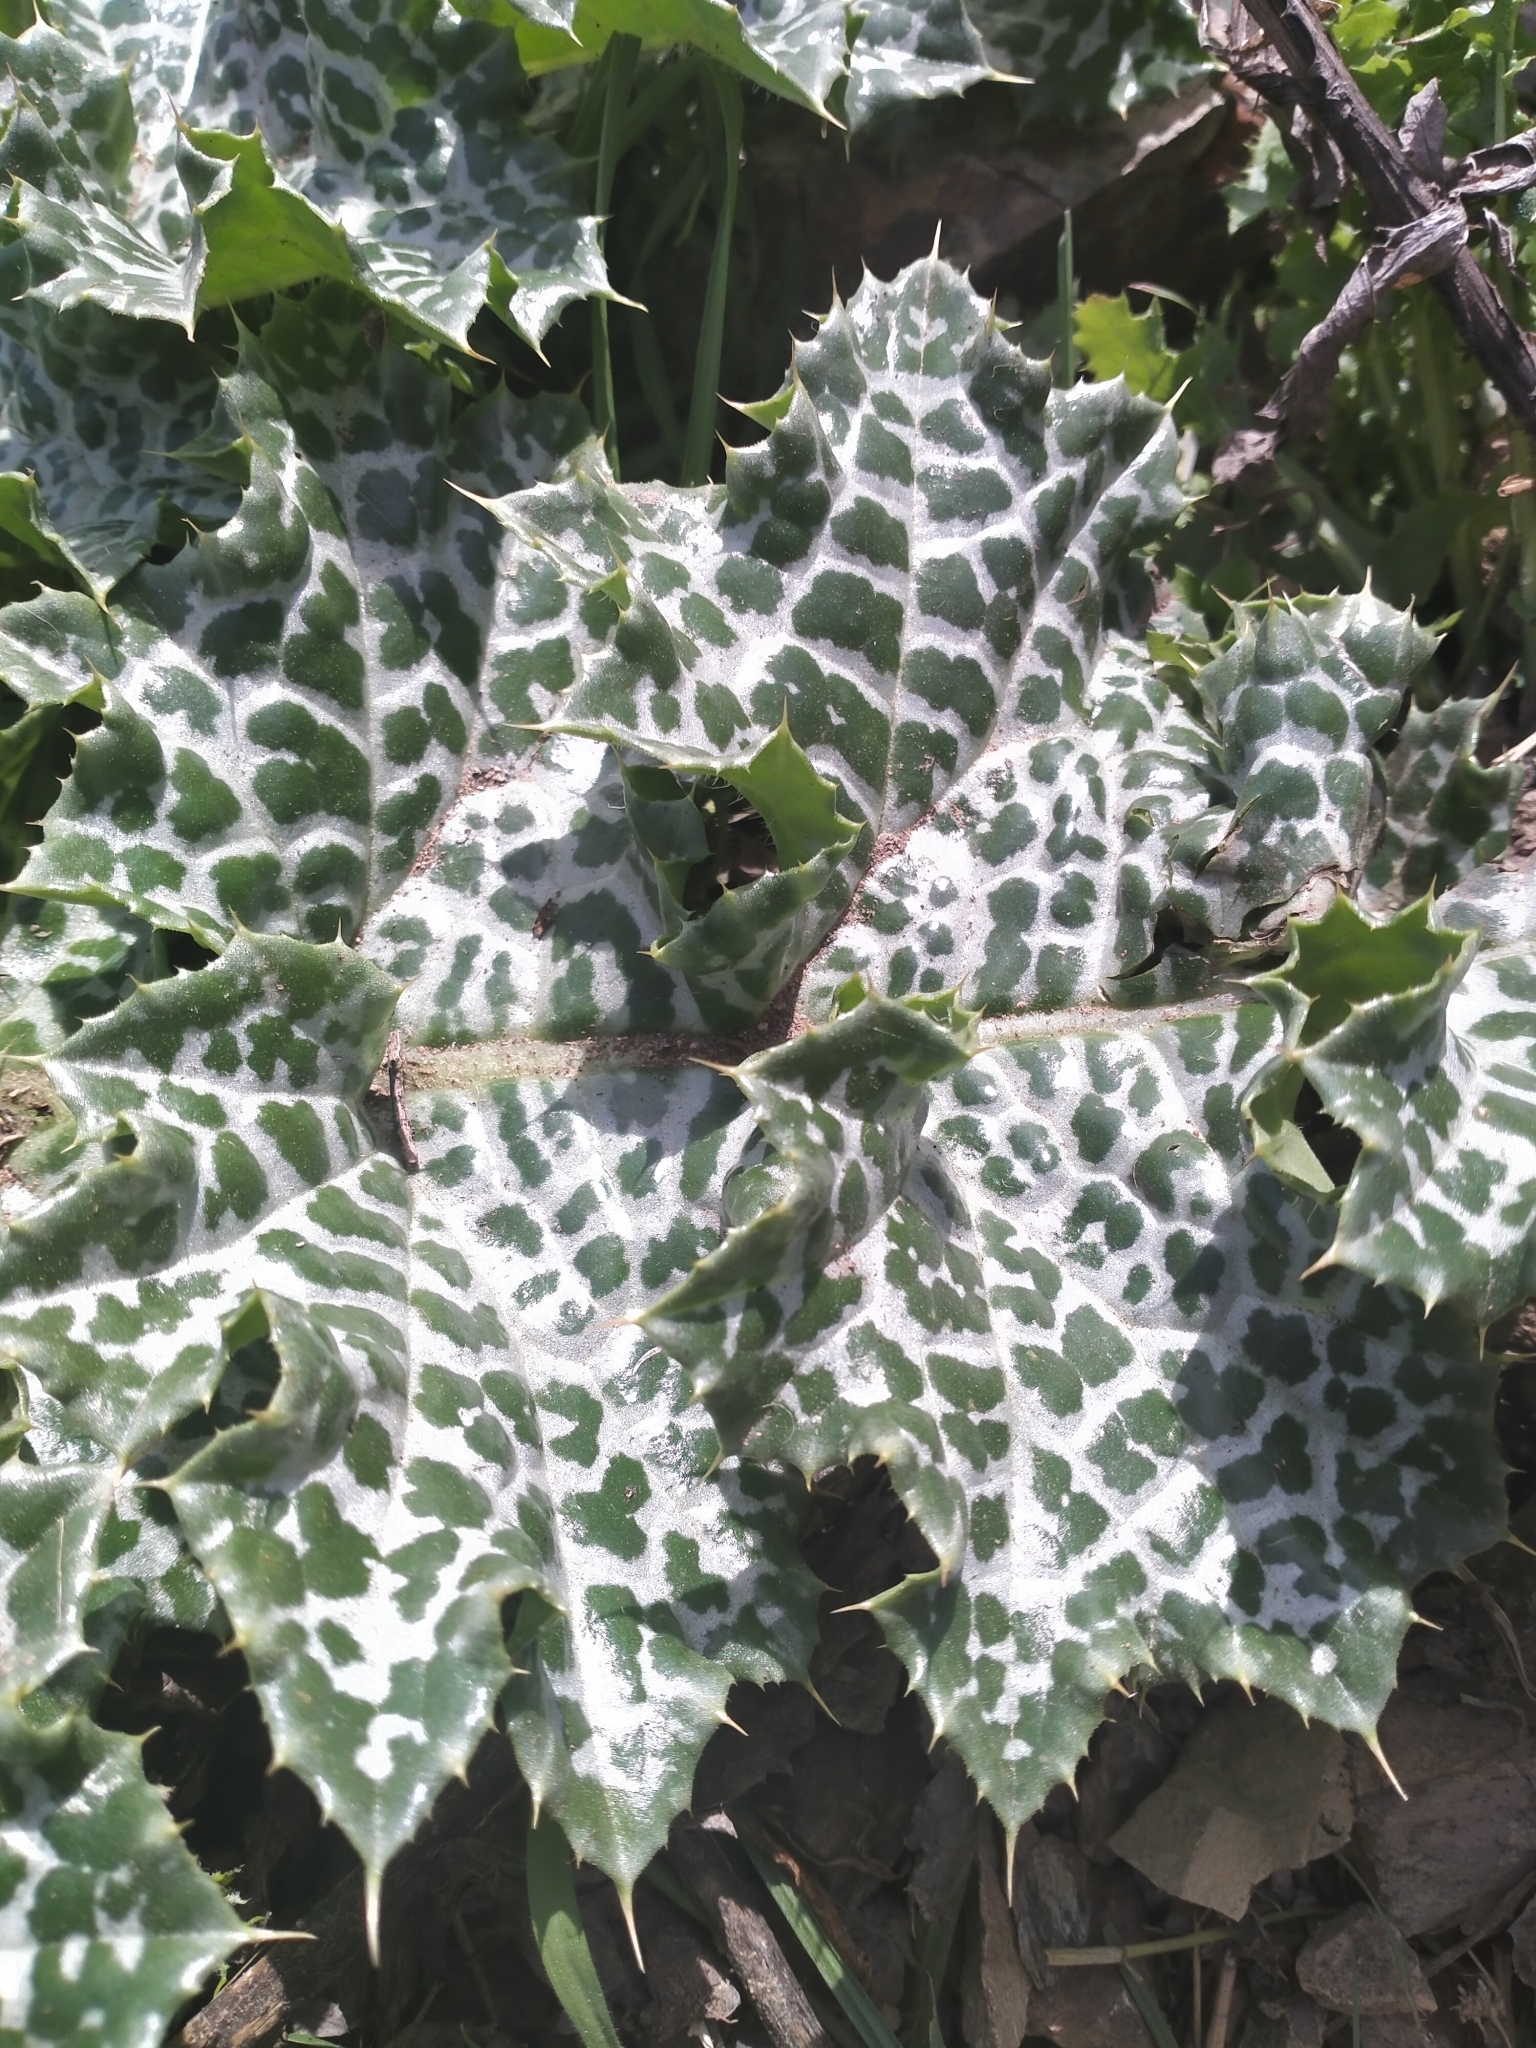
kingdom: Plantae
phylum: Tracheophyta
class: Magnoliopsida
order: Asterales
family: Asteraceae
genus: Silybum
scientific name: Silybum marianum
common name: Milk thistle
